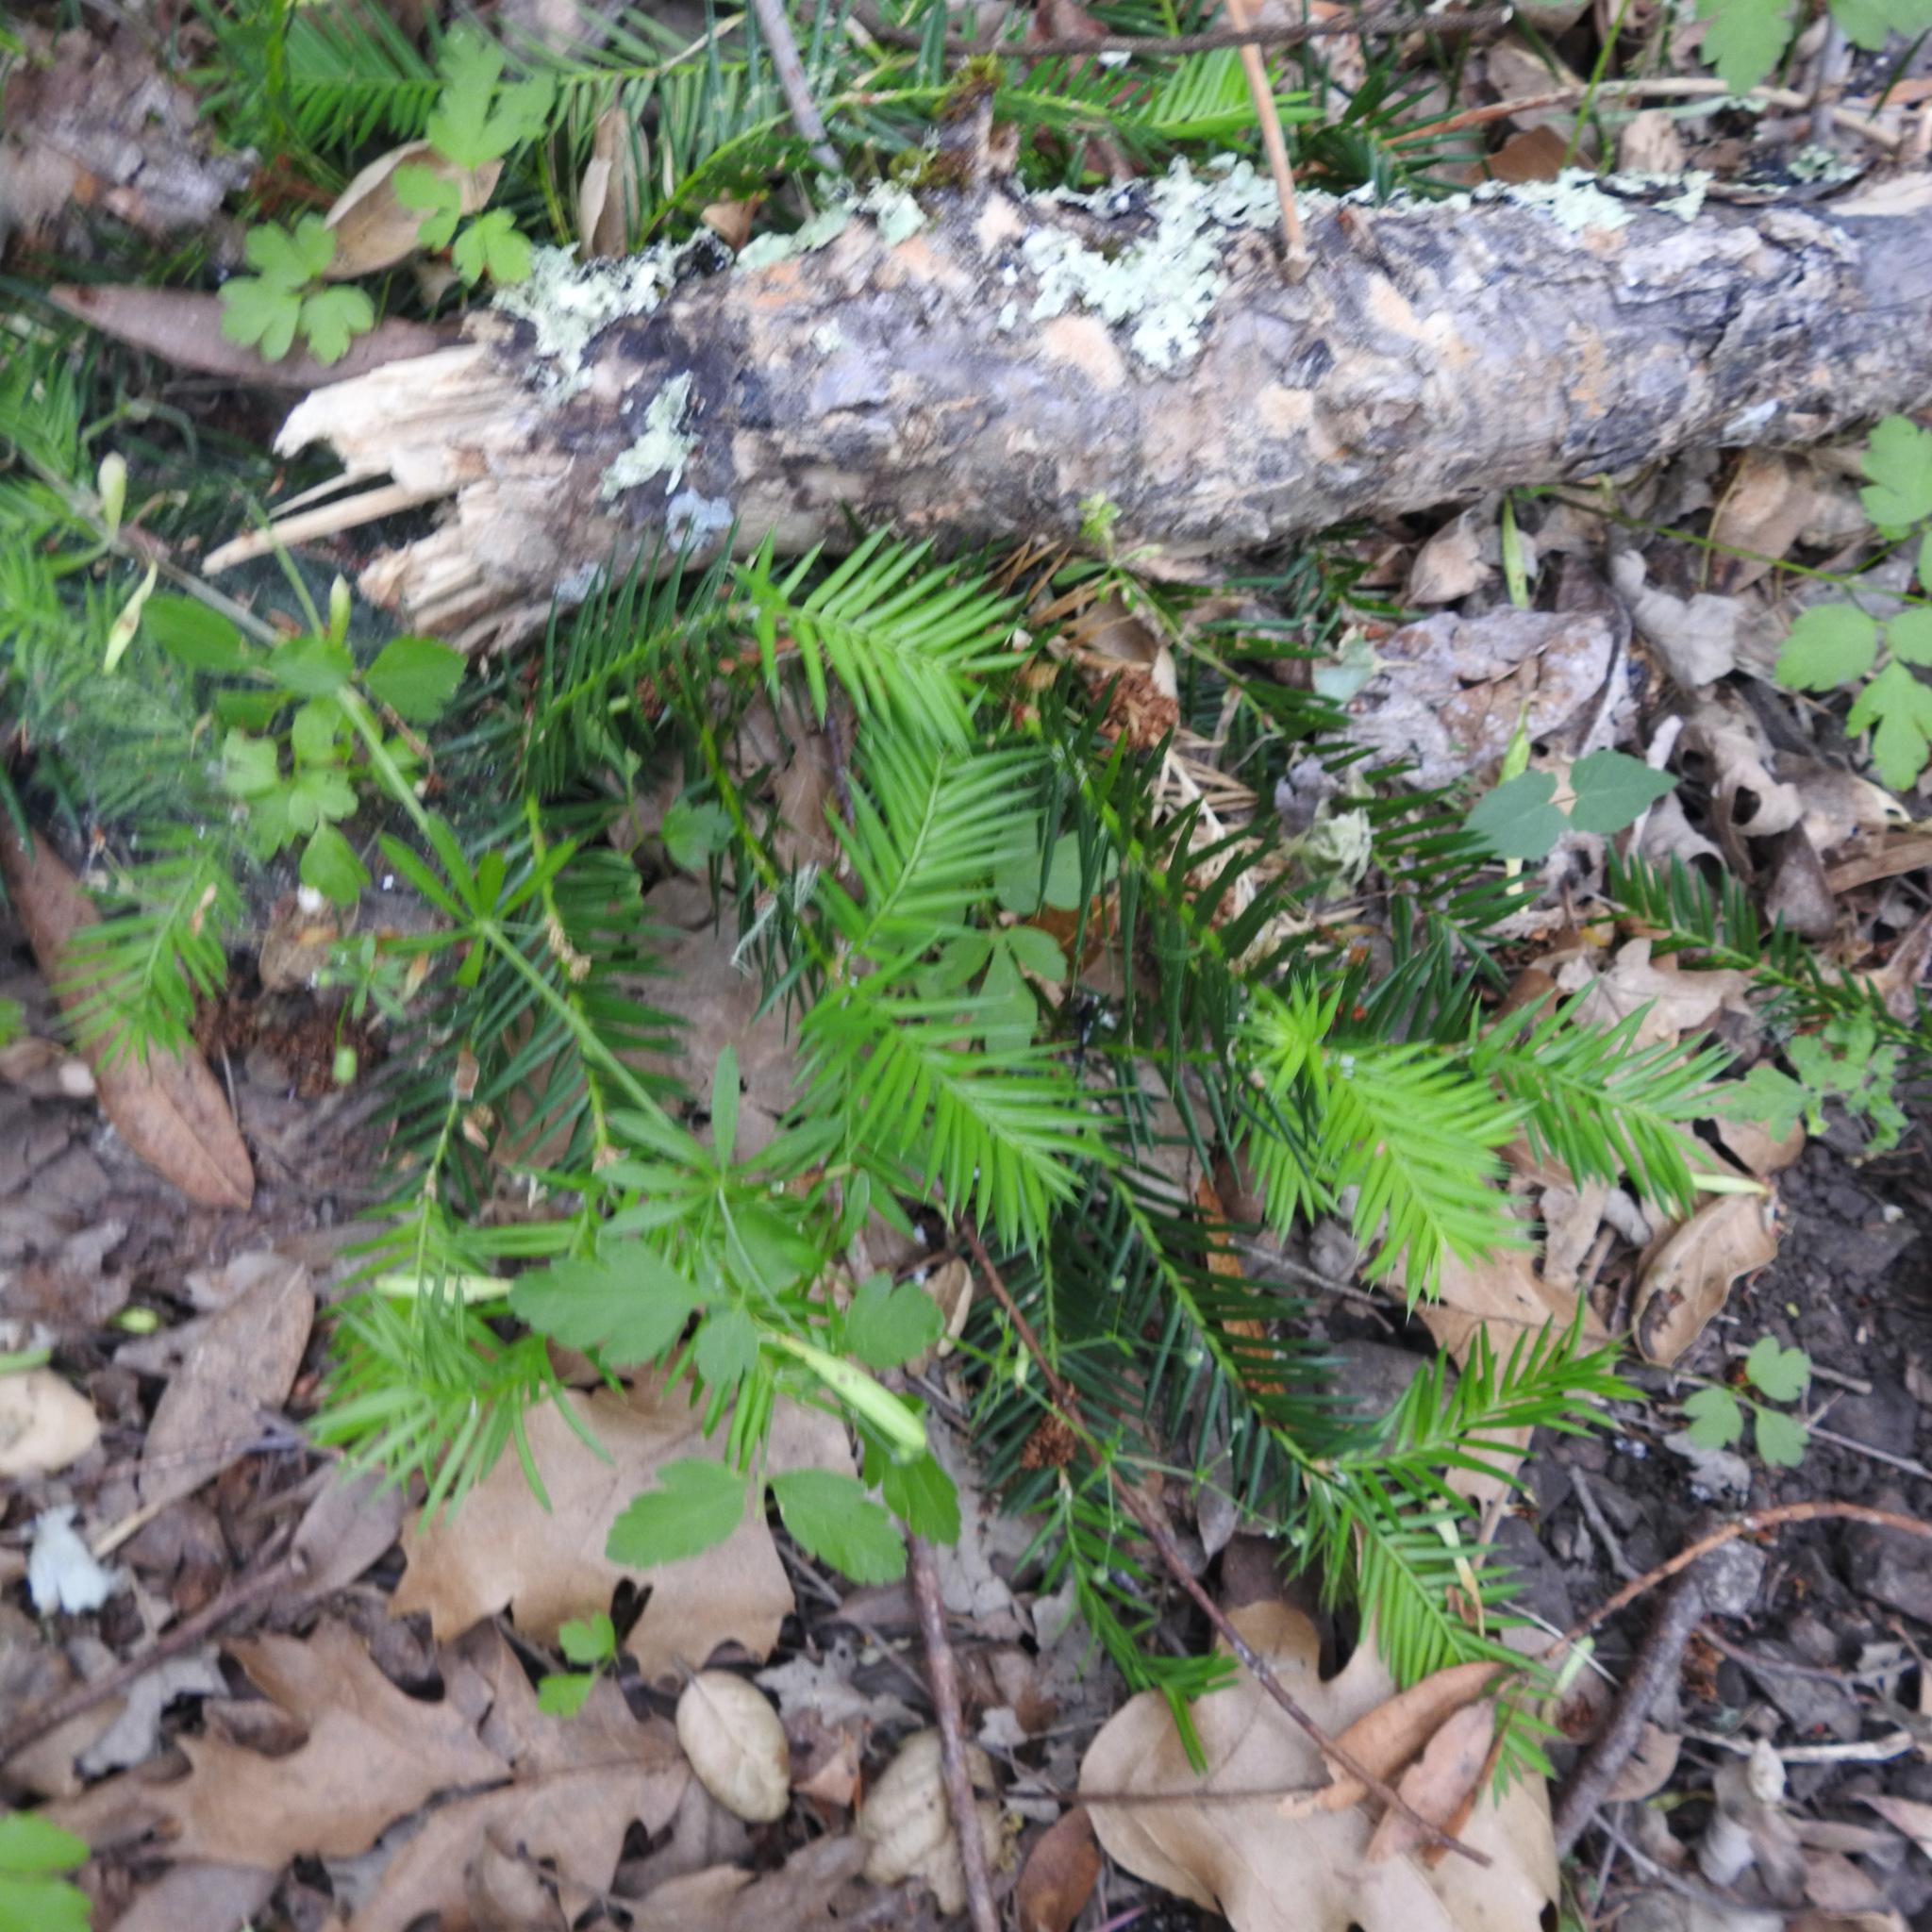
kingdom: Plantae
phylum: Tracheophyta
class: Pinopsida
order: Pinales
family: Taxaceae
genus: Torreya
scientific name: Torreya californica
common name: California torreya
